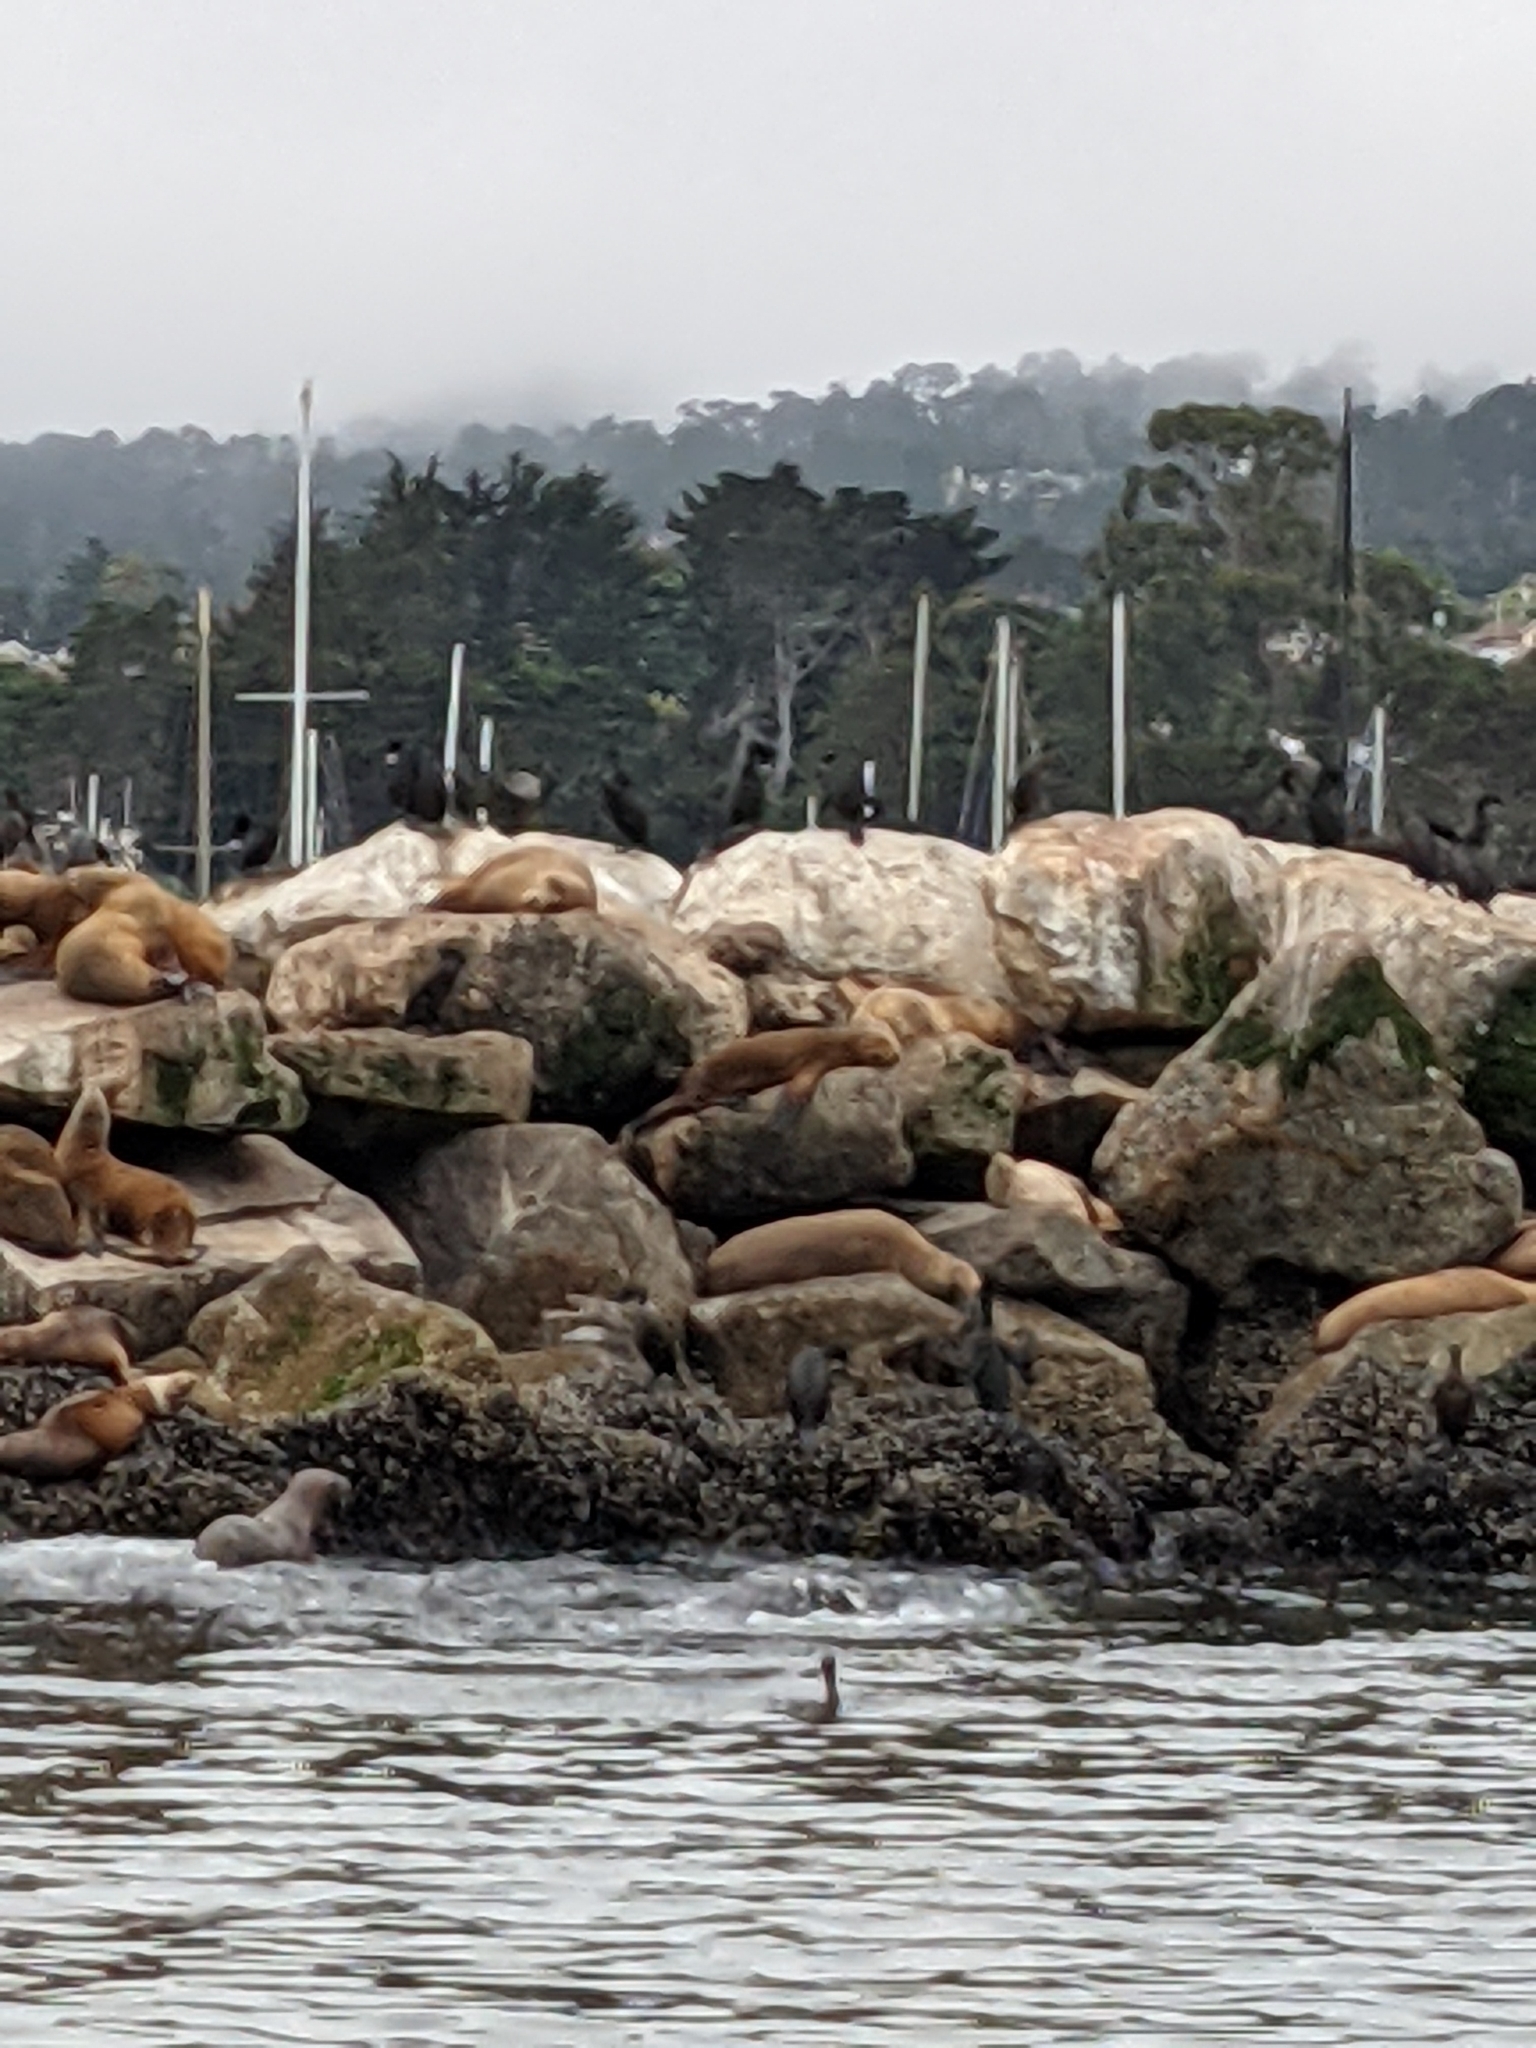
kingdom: Animalia
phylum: Chordata
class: Mammalia
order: Carnivora
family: Otariidae
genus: Zalophus
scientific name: Zalophus californianus
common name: California sea lion
